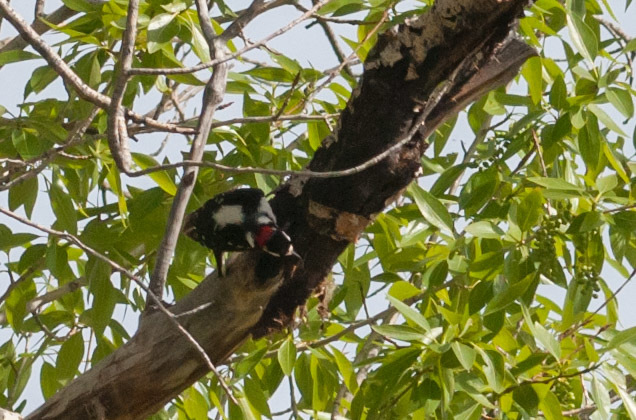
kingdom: Animalia
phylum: Chordata
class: Aves
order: Piciformes
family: Picidae
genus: Dryobates
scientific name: Dryobates pubescens
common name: Downy woodpecker
